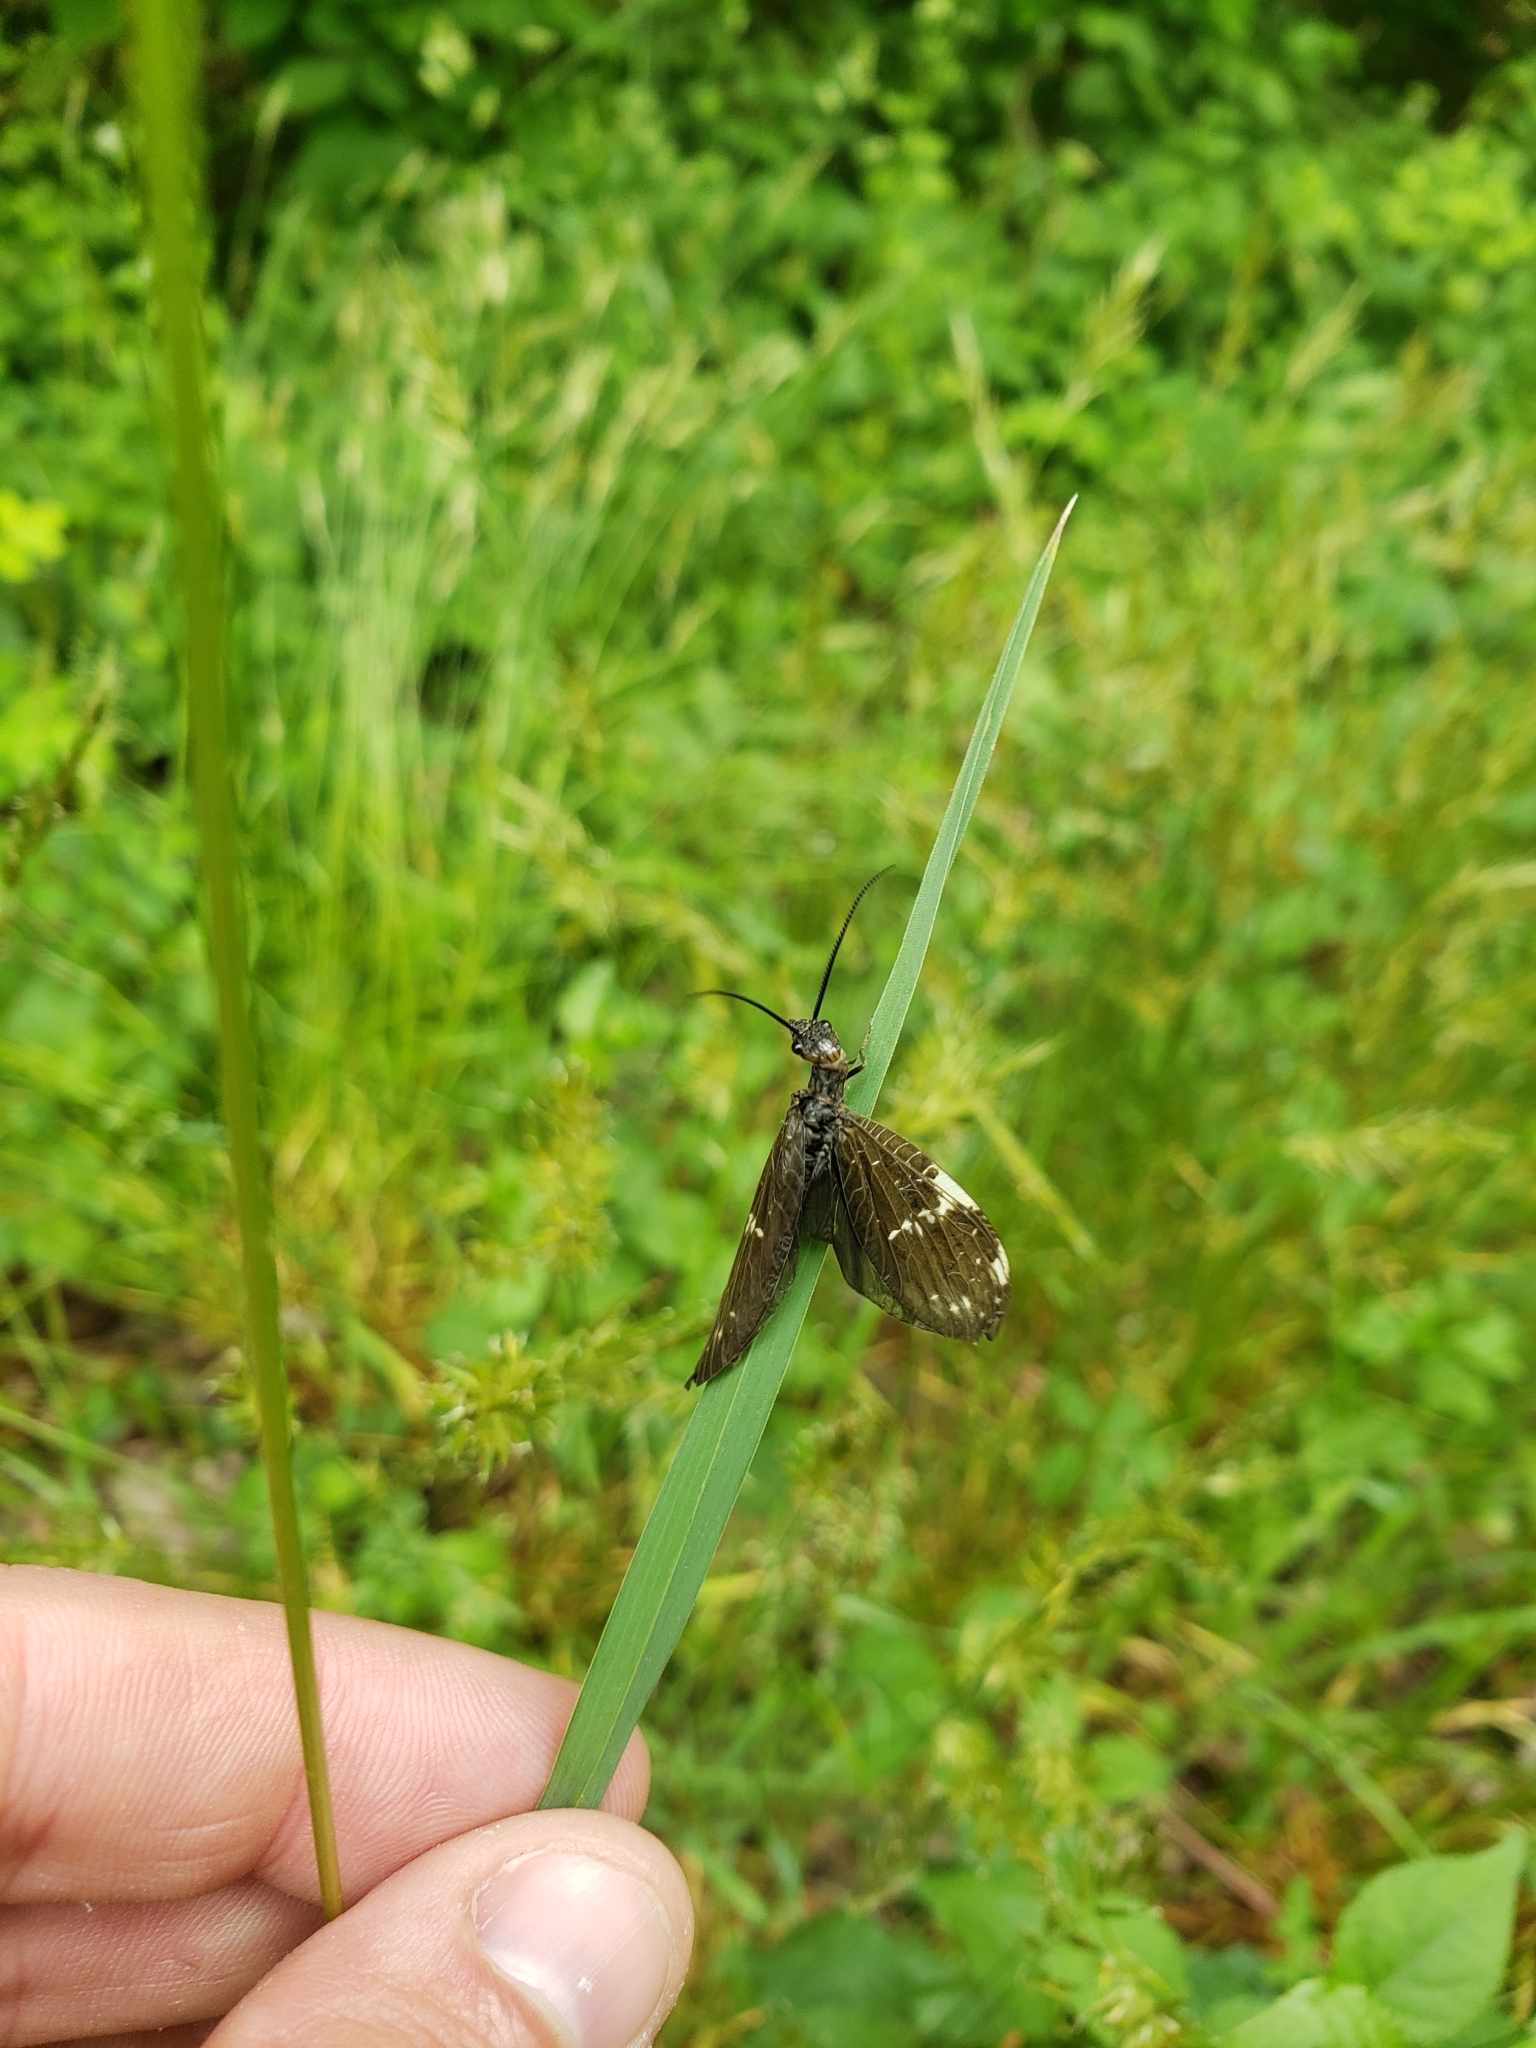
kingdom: Animalia
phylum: Arthropoda
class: Insecta
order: Megaloptera
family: Corydalidae
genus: Nigronia
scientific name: Nigronia serricornis
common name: Serrate dark fishfly
